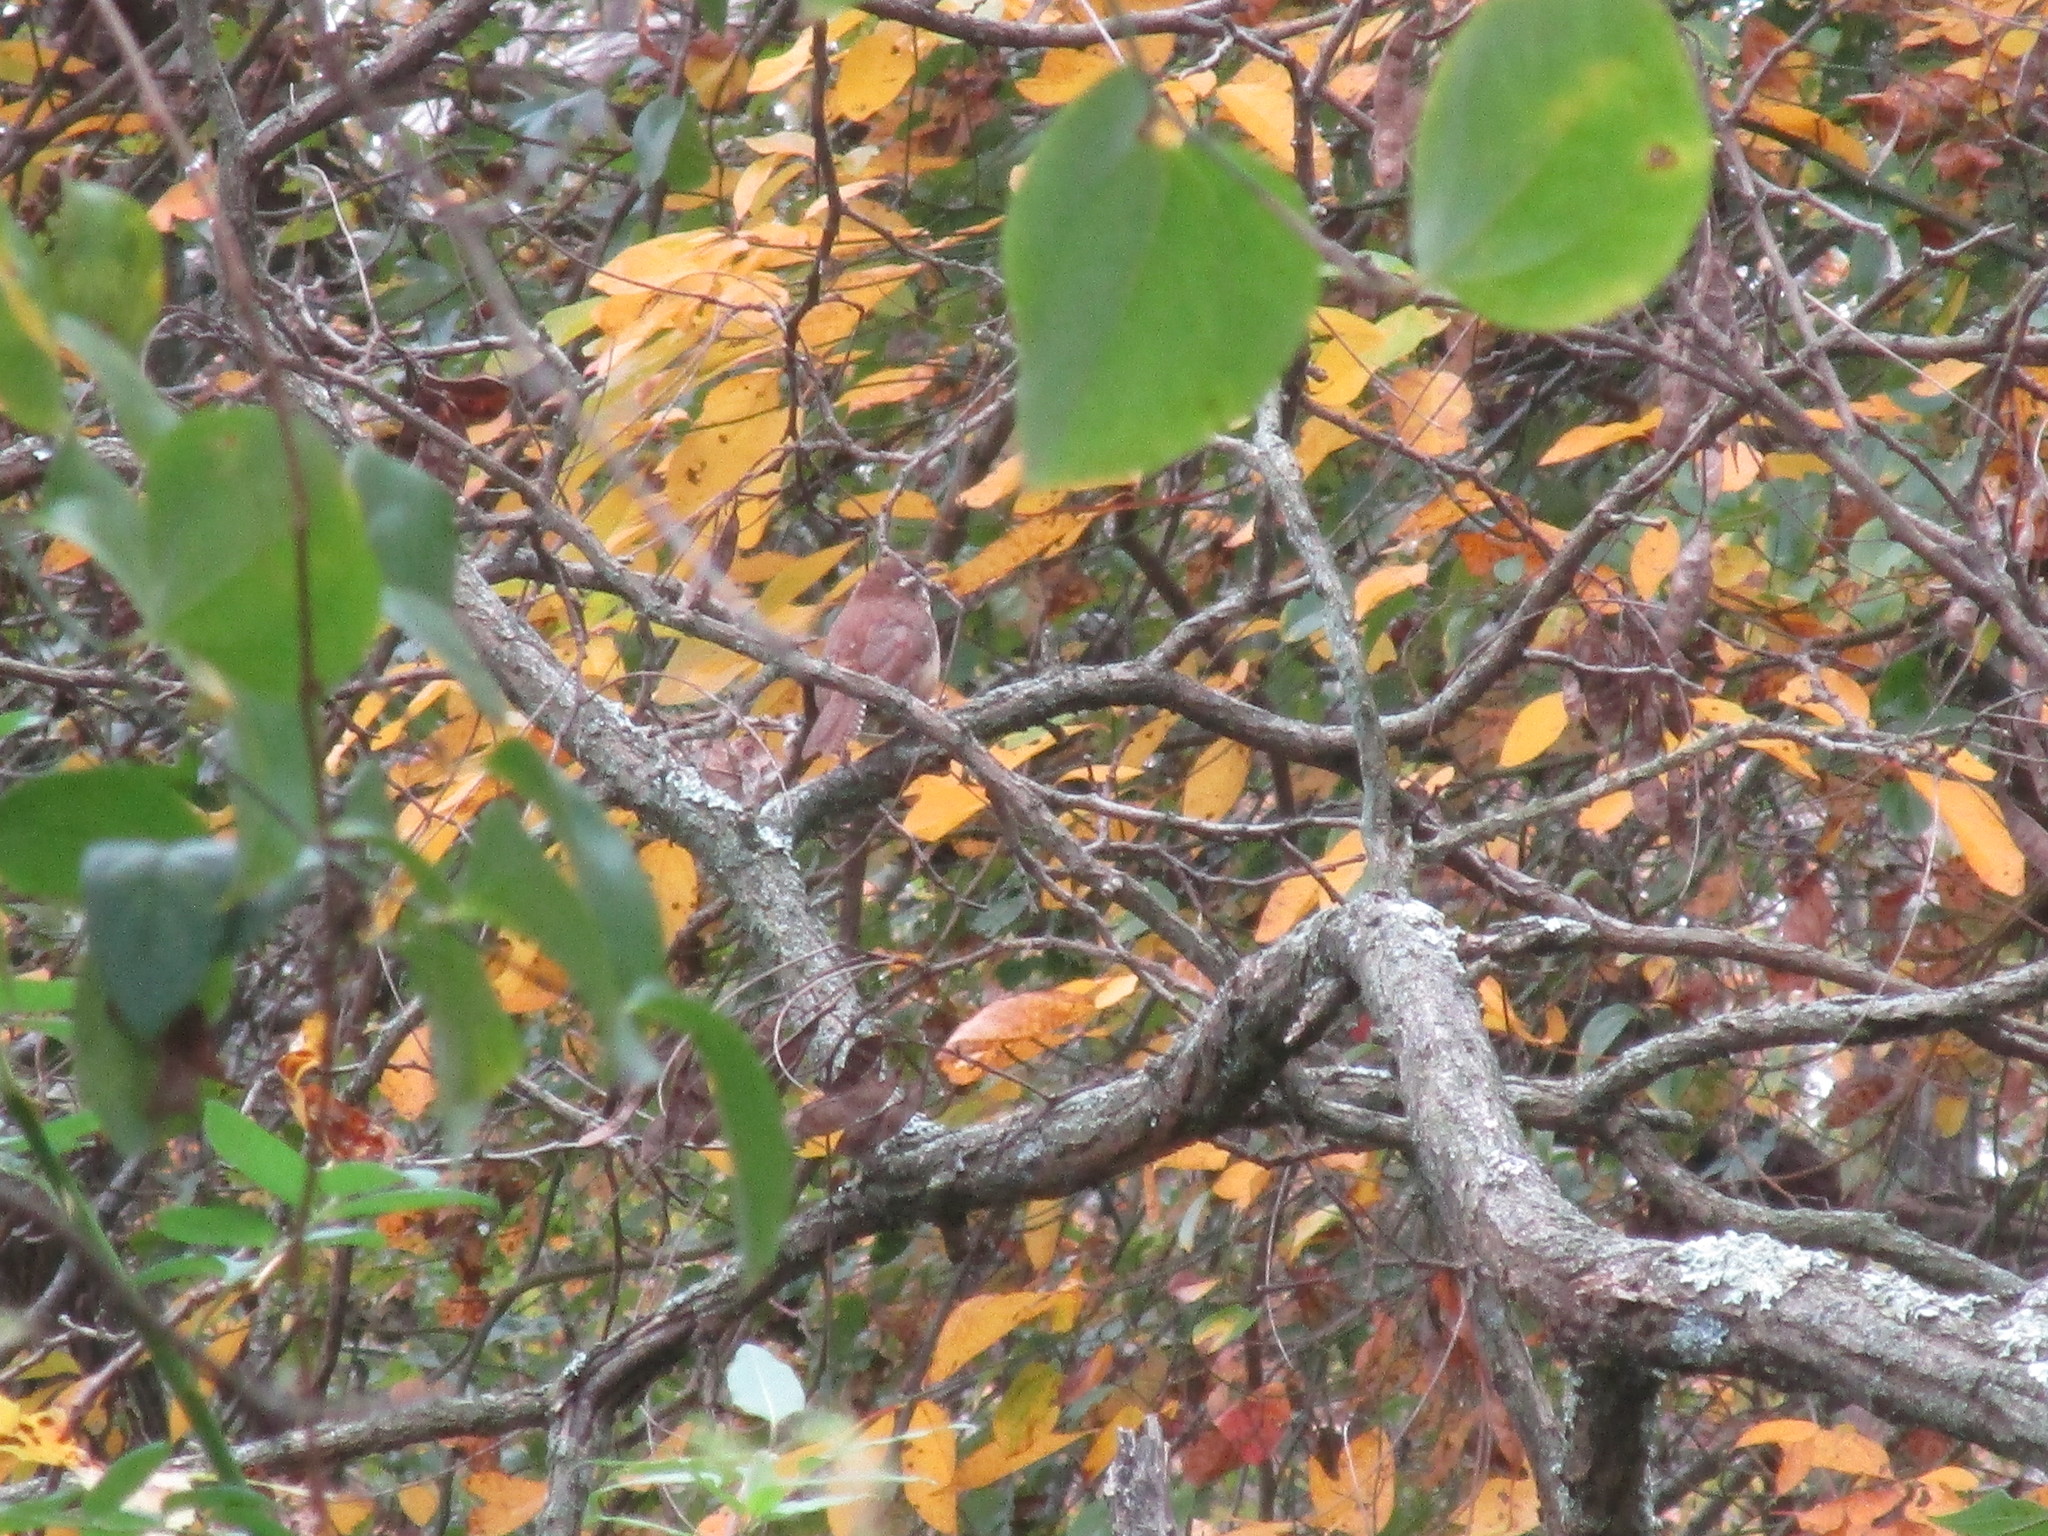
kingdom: Animalia
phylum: Chordata
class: Aves
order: Passeriformes
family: Troglodytidae
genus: Thryothorus
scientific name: Thryothorus ludovicianus
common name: Carolina wren
